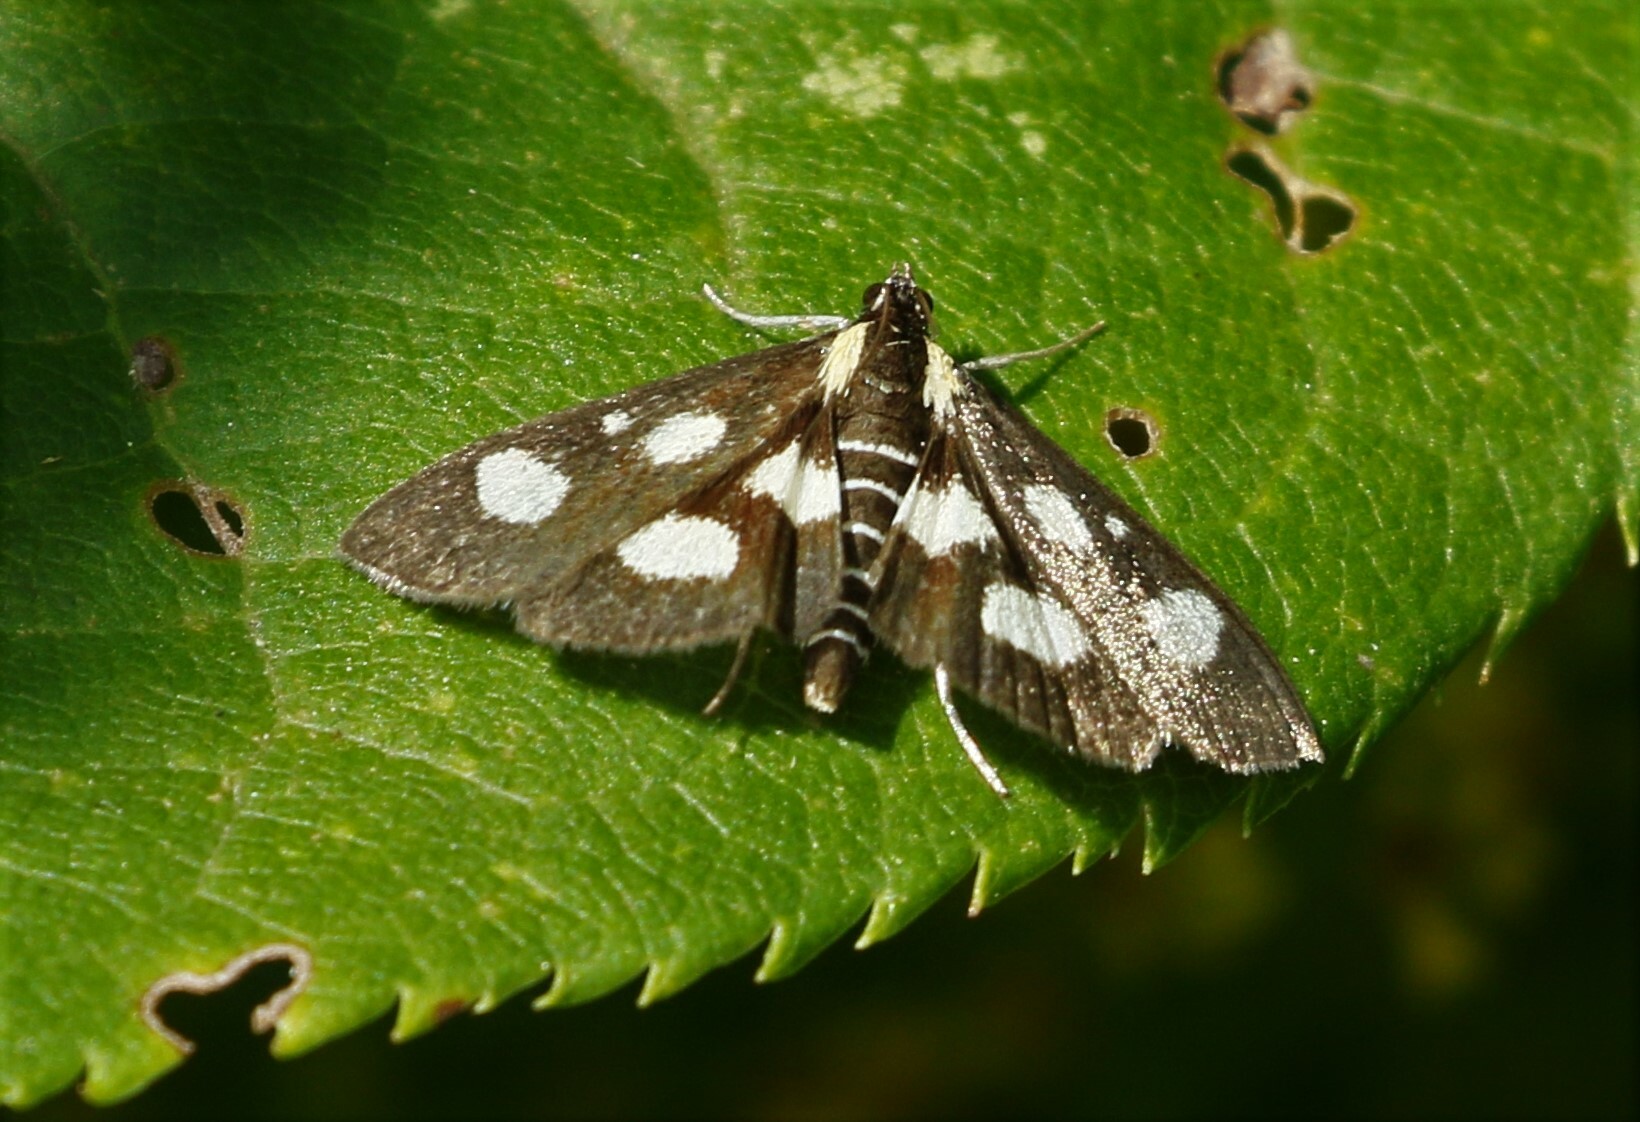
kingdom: Animalia
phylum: Arthropoda
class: Insecta
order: Lepidoptera
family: Crambidae
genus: Anania
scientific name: Anania funebris
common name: White-spotted sable moth
